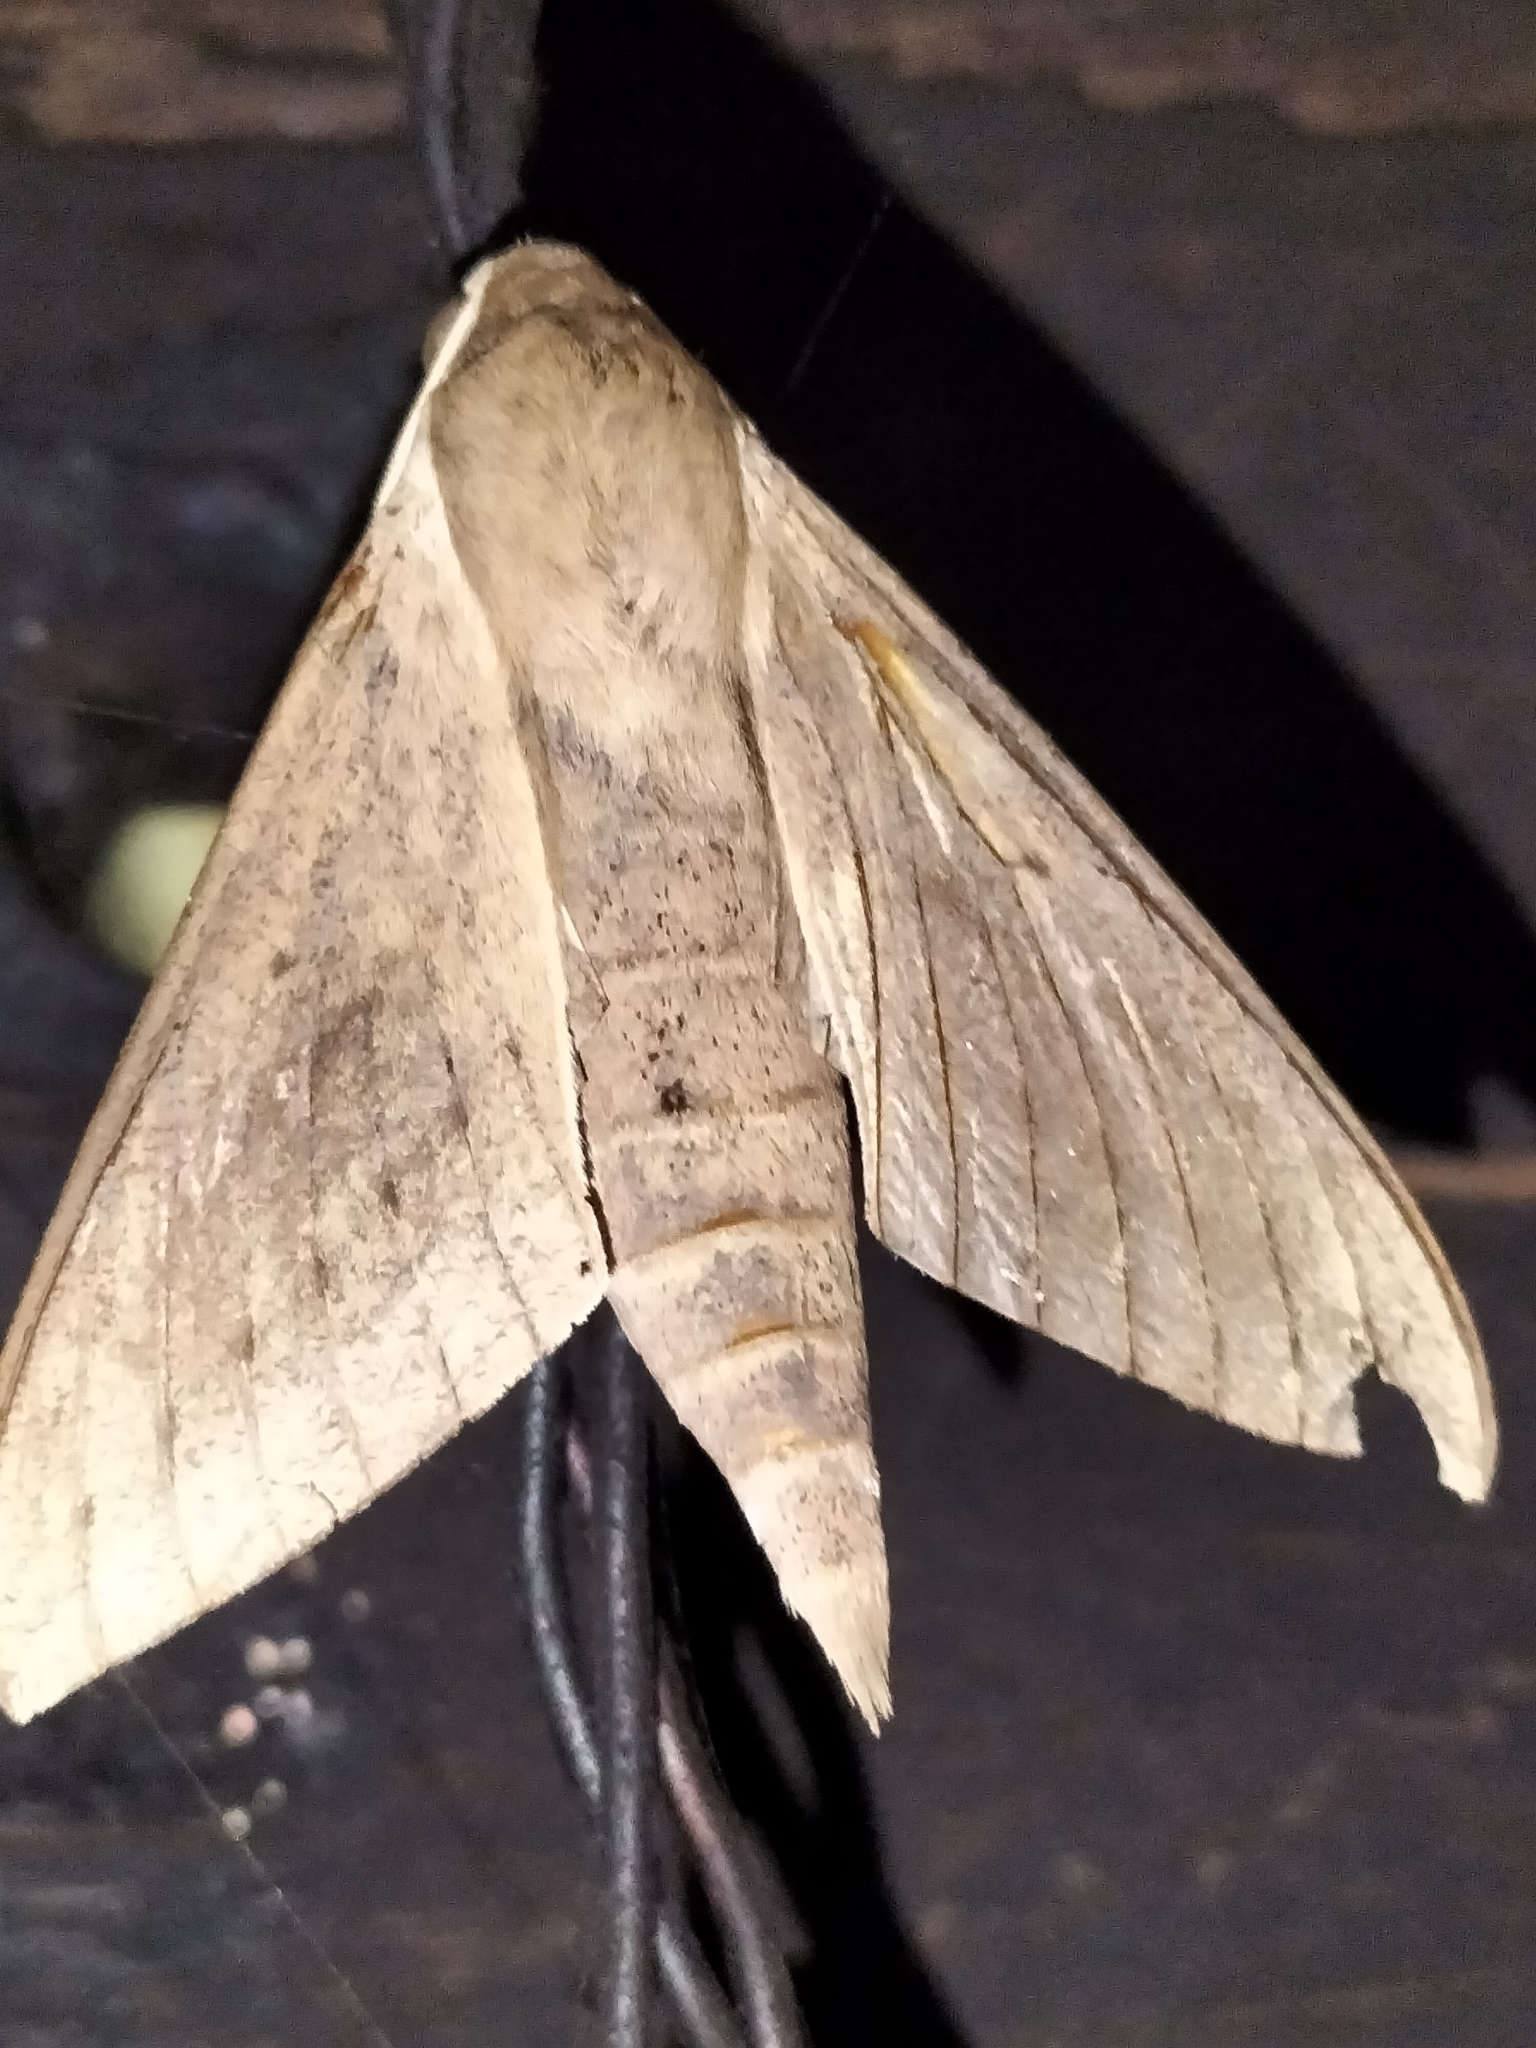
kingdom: Animalia
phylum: Arthropoda
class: Insecta
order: Lepidoptera
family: Sphingidae
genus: Theretra
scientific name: Theretra latreillii
